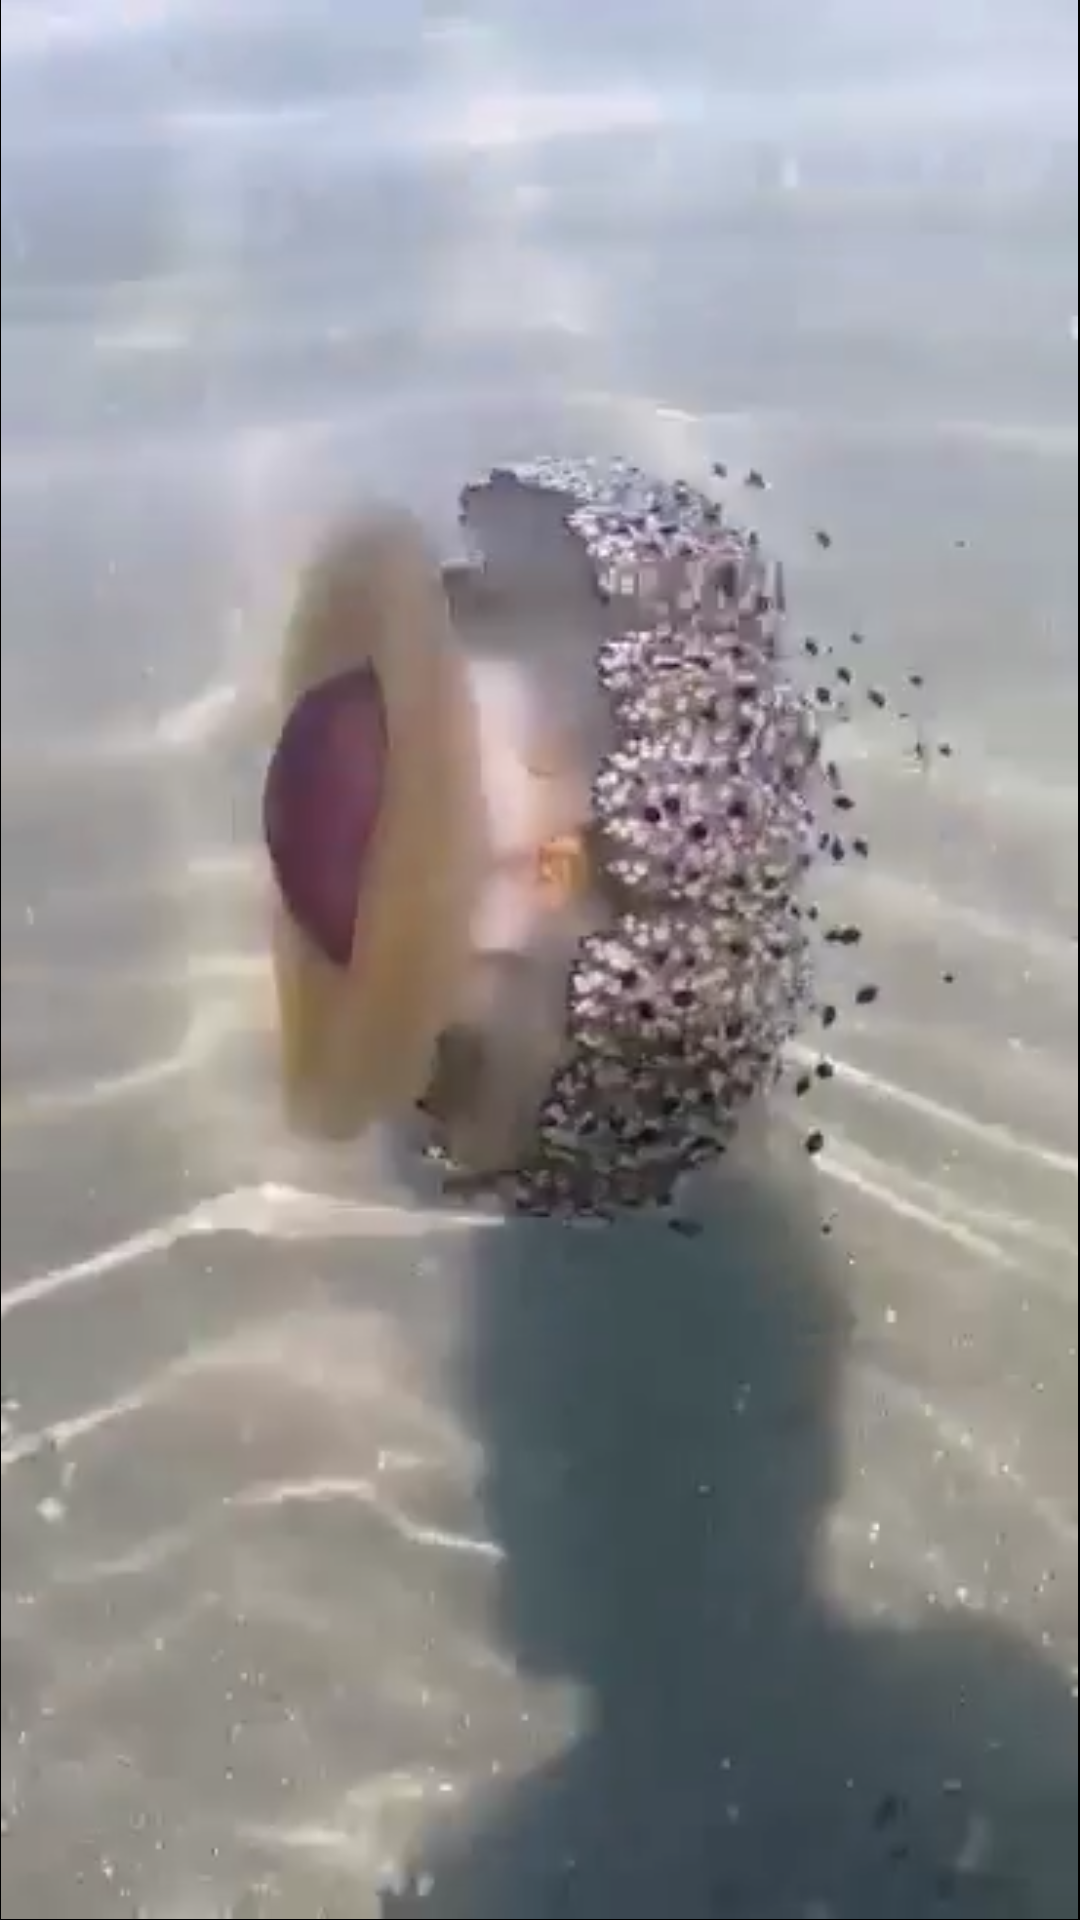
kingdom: Animalia
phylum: Cnidaria
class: Scyphozoa
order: Rhizostomeae
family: Cepheidae
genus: Cotylorhiza
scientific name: Cotylorhiza tuberculata
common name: Mediterranean jelly
